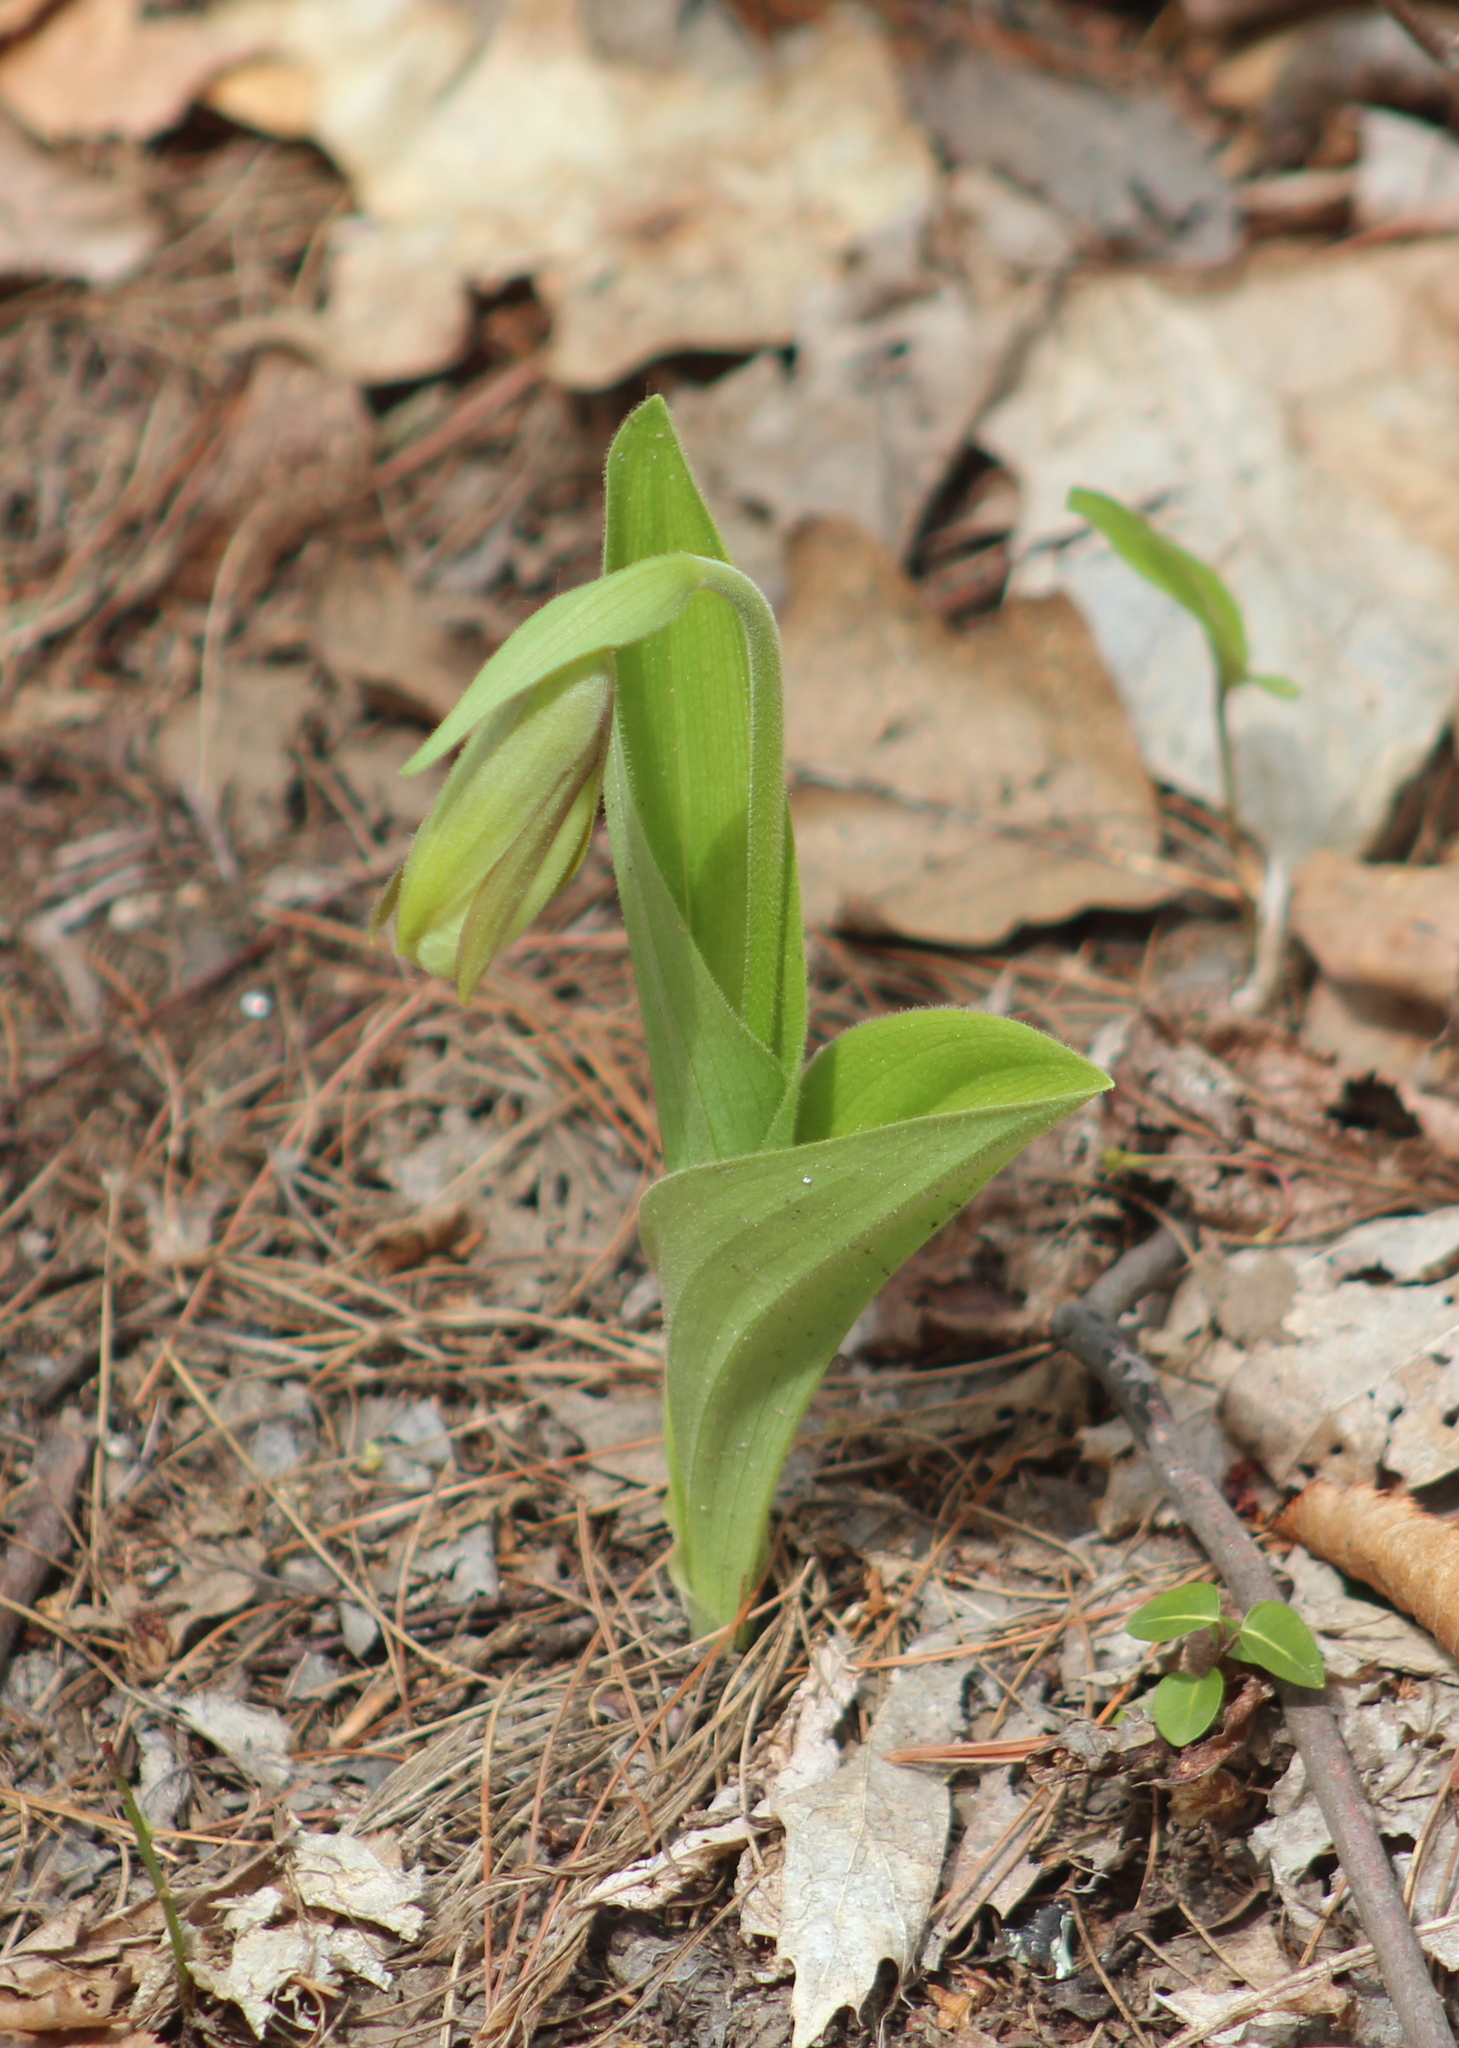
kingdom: Plantae
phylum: Tracheophyta
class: Liliopsida
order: Asparagales
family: Orchidaceae
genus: Cypripedium
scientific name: Cypripedium acaule
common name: Pink lady's-slipper
